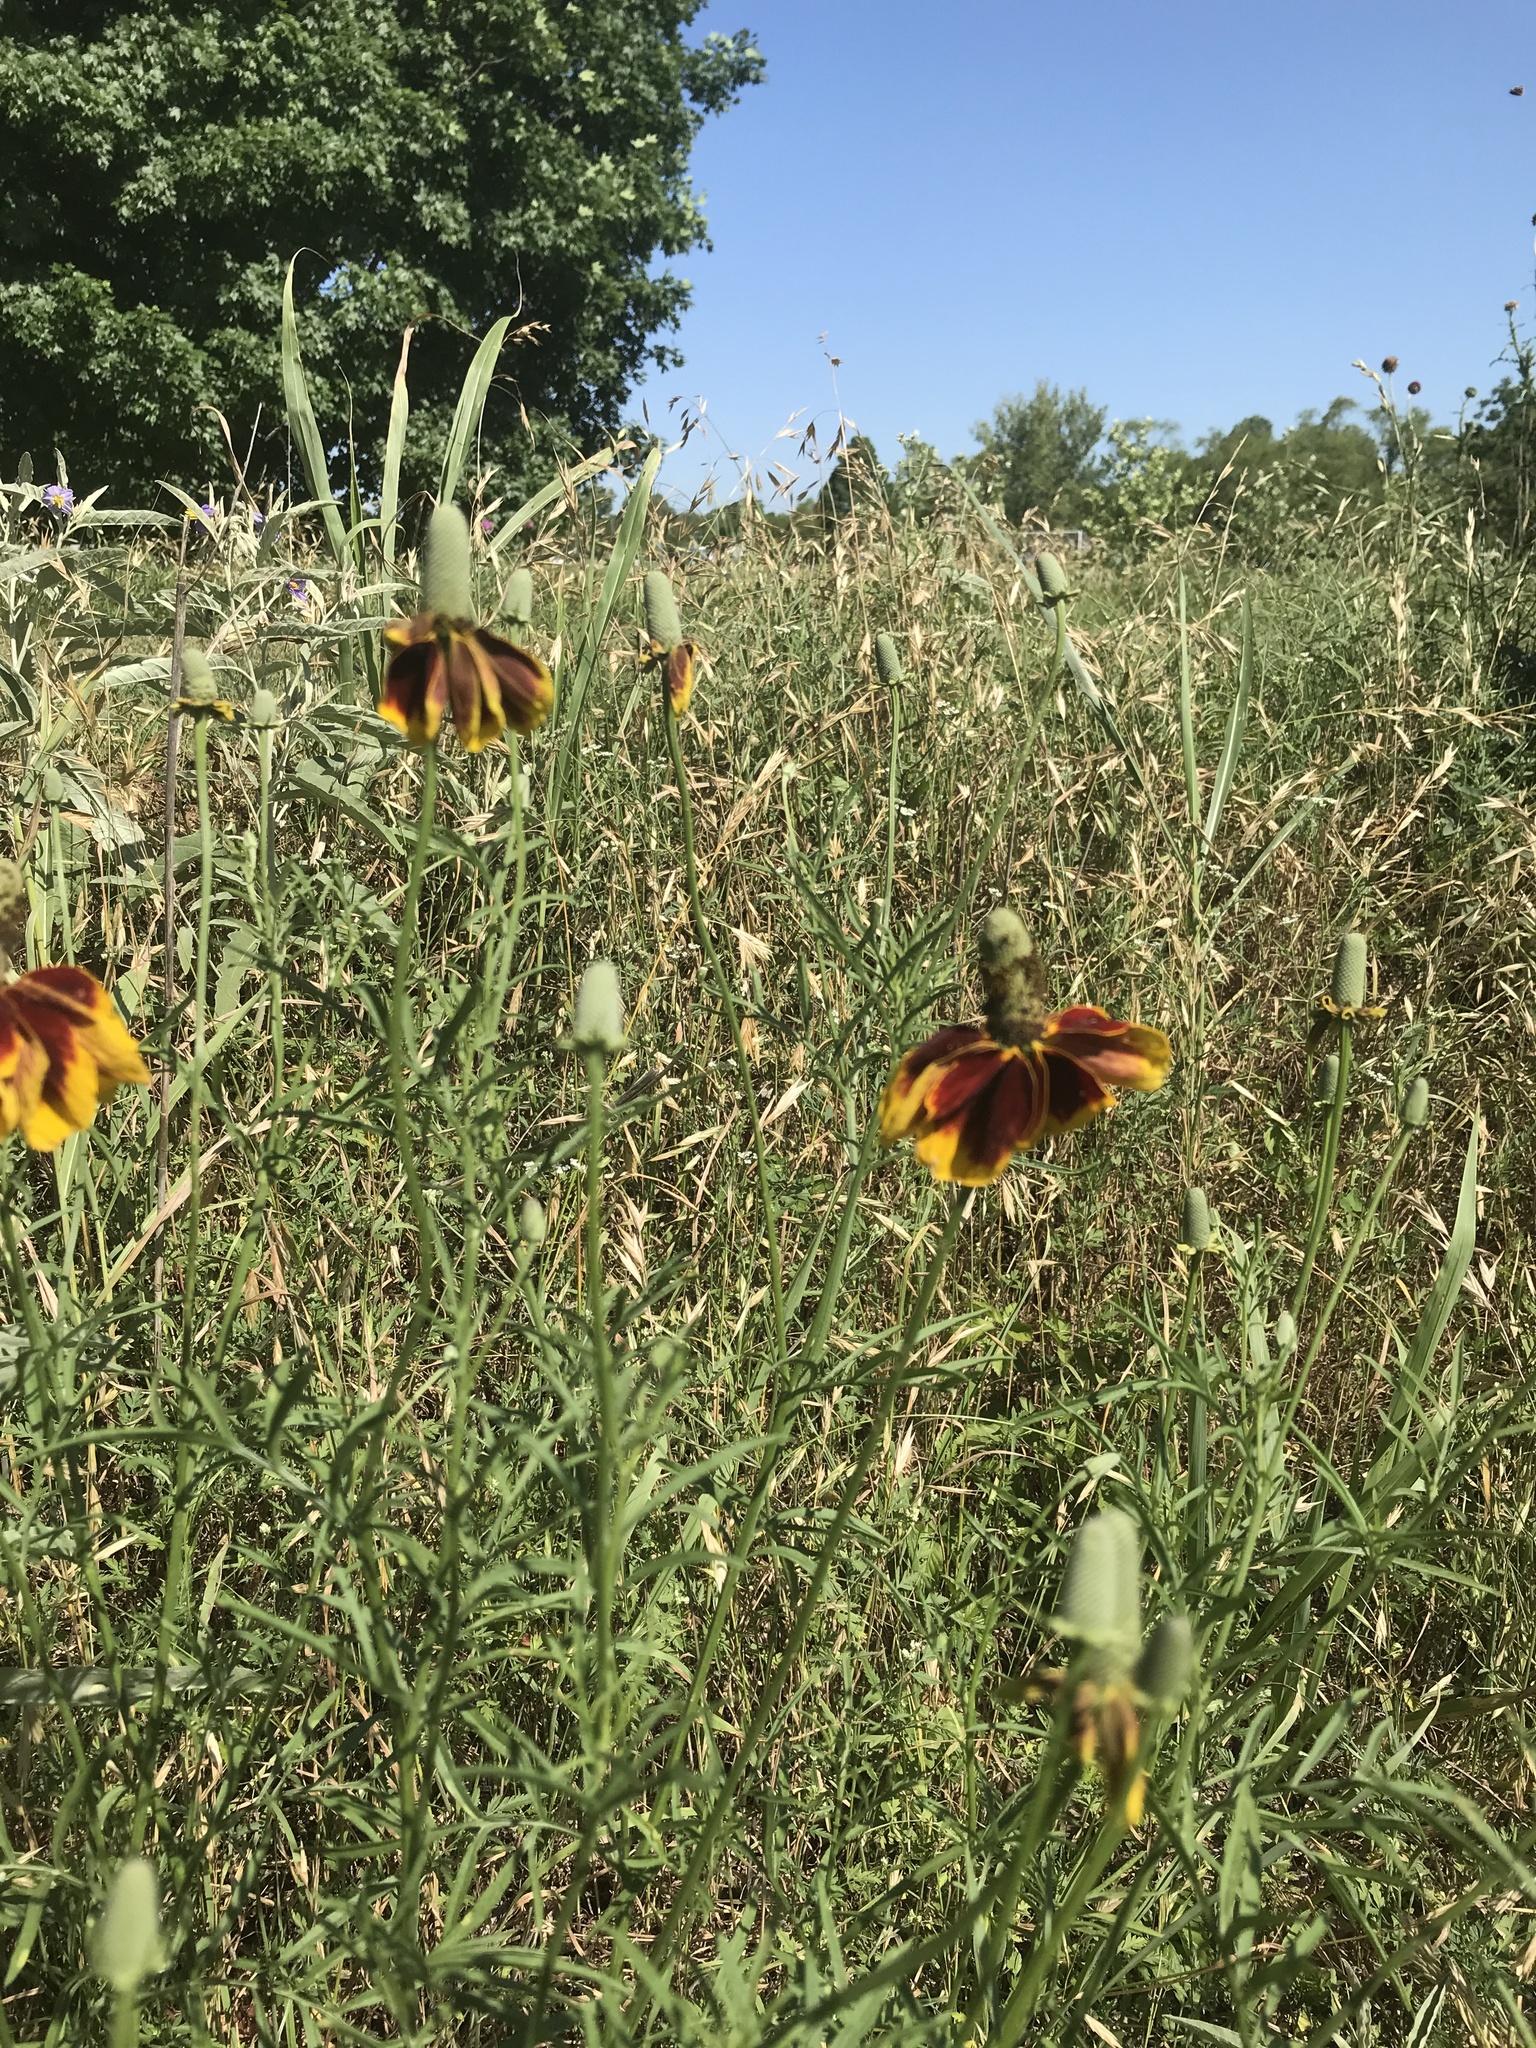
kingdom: Plantae
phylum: Tracheophyta
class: Magnoliopsida
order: Asterales
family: Asteraceae
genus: Ratibida
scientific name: Ratibida columnifera
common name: Prairie coneflower
